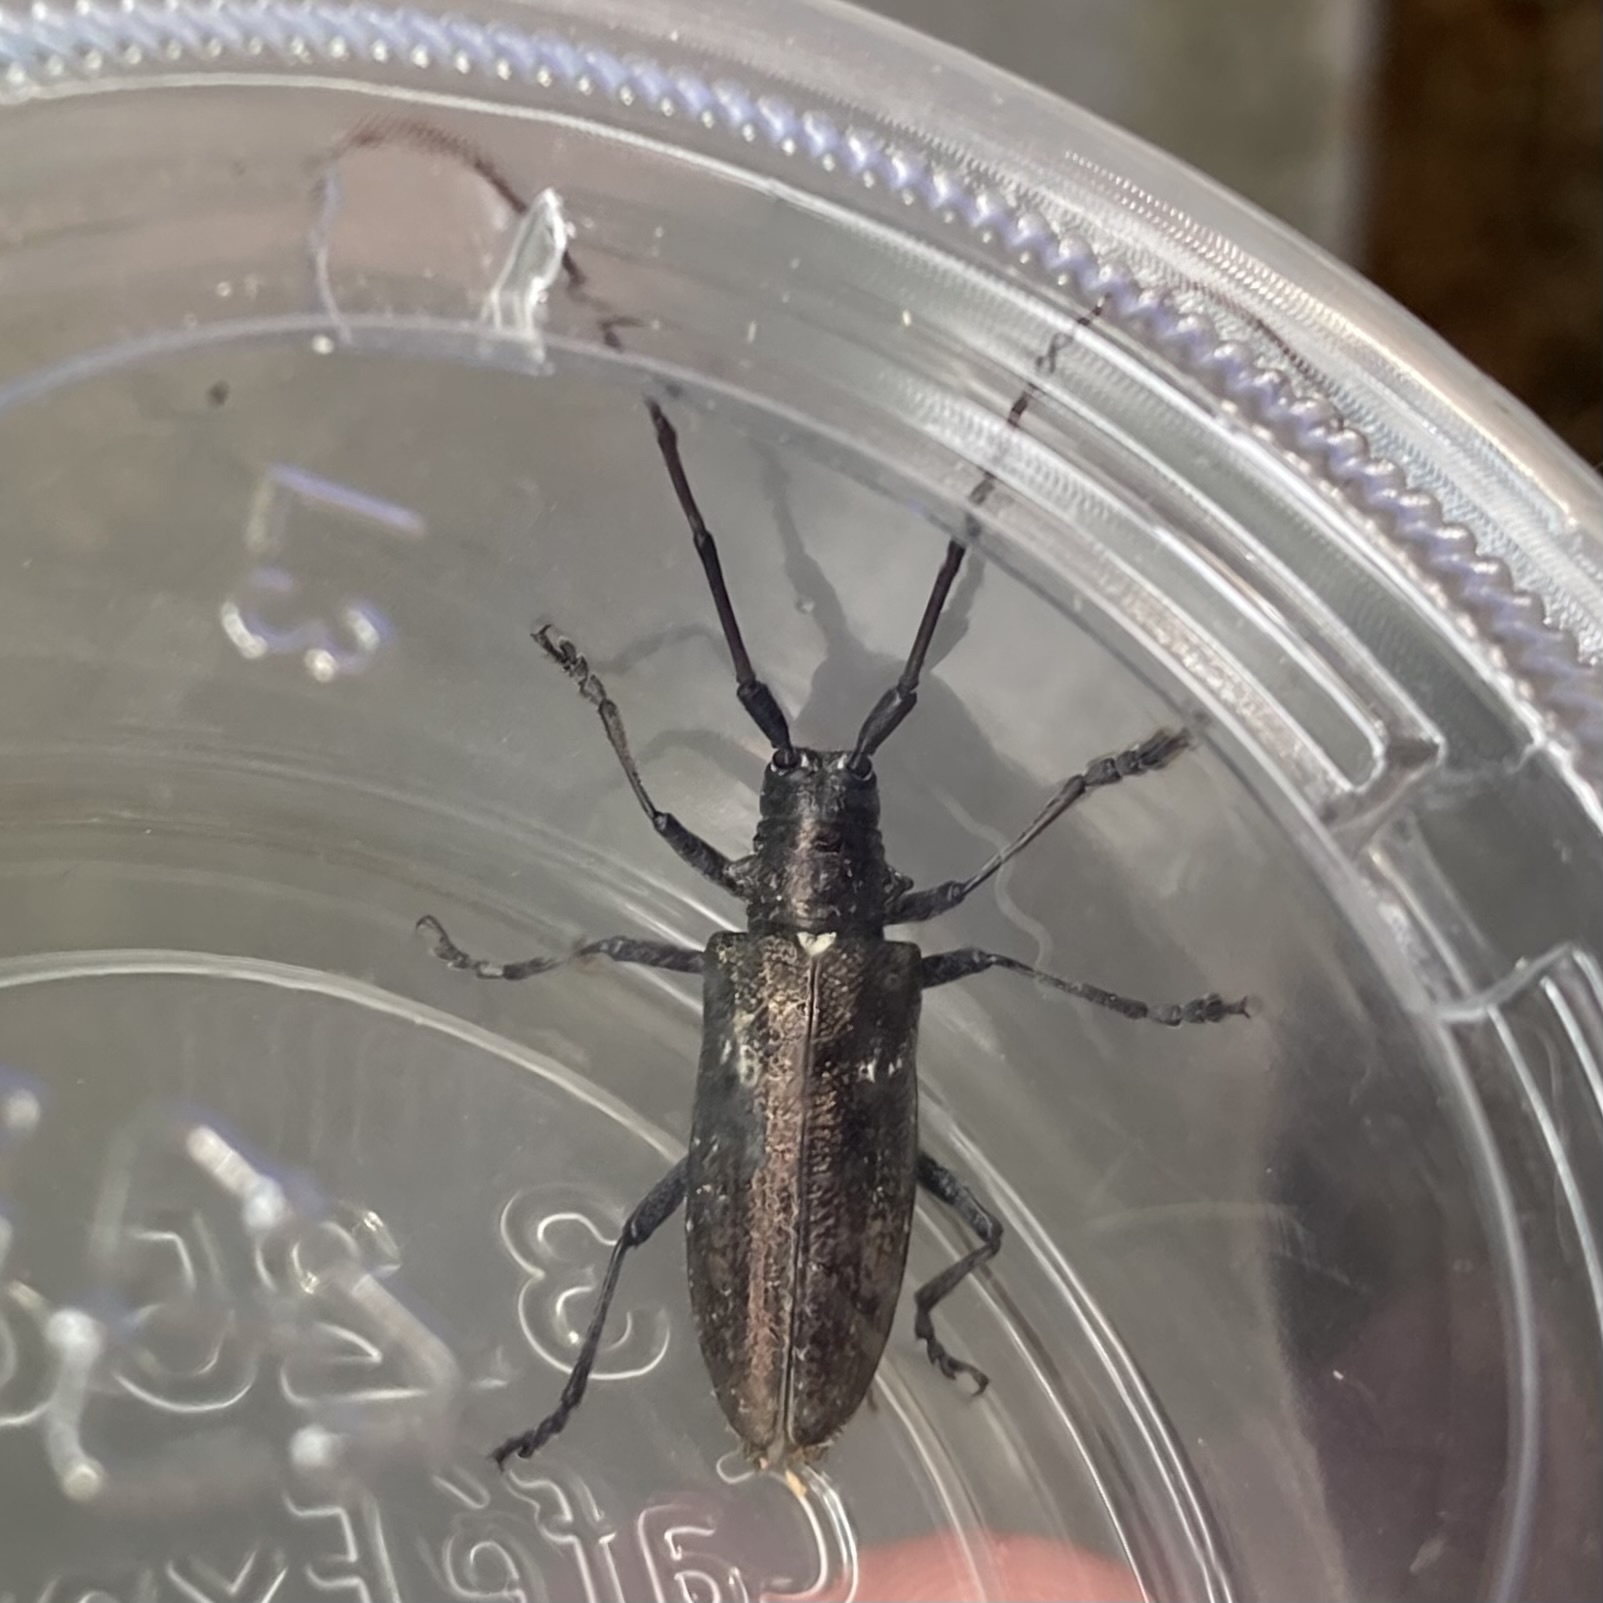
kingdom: Animalia
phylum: Arthropoda
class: Insecta
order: Coleoptera
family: Cerambycidae
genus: Monochamus
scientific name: Monochamus scutellatus
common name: White-spotted sawyer beetle
